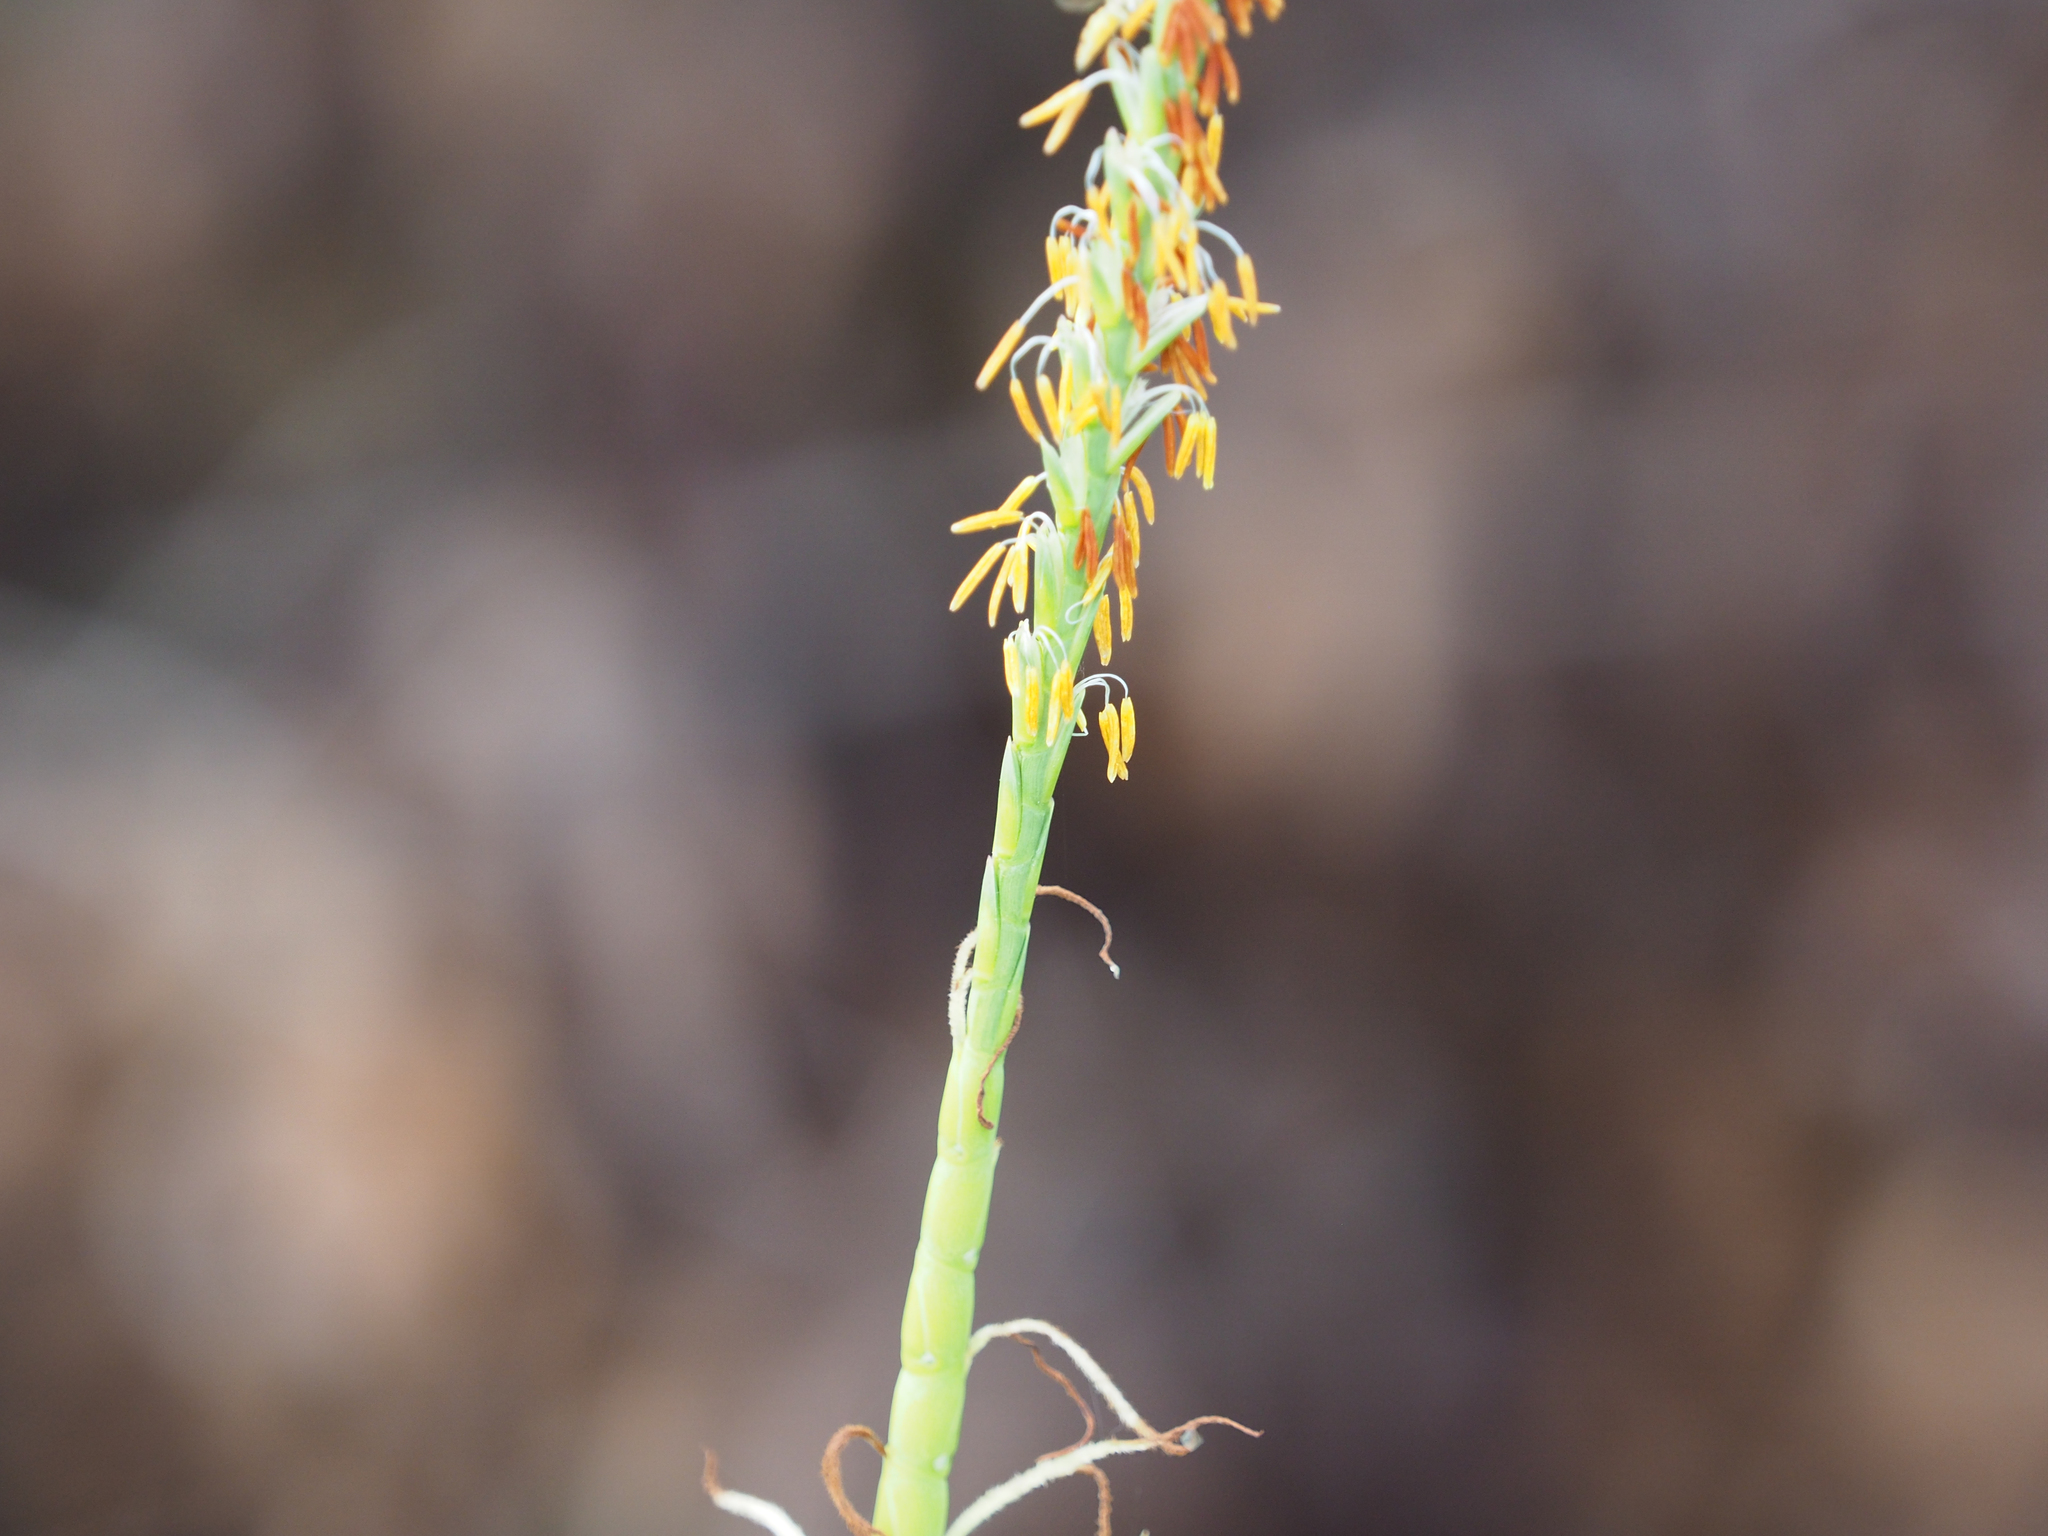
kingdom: Plantae
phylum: Tracheophyta
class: Liliopsida
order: Poales
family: Poaceae
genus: Tripsacum
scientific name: Tripsacum dactyloides
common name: Buffalo-grass
